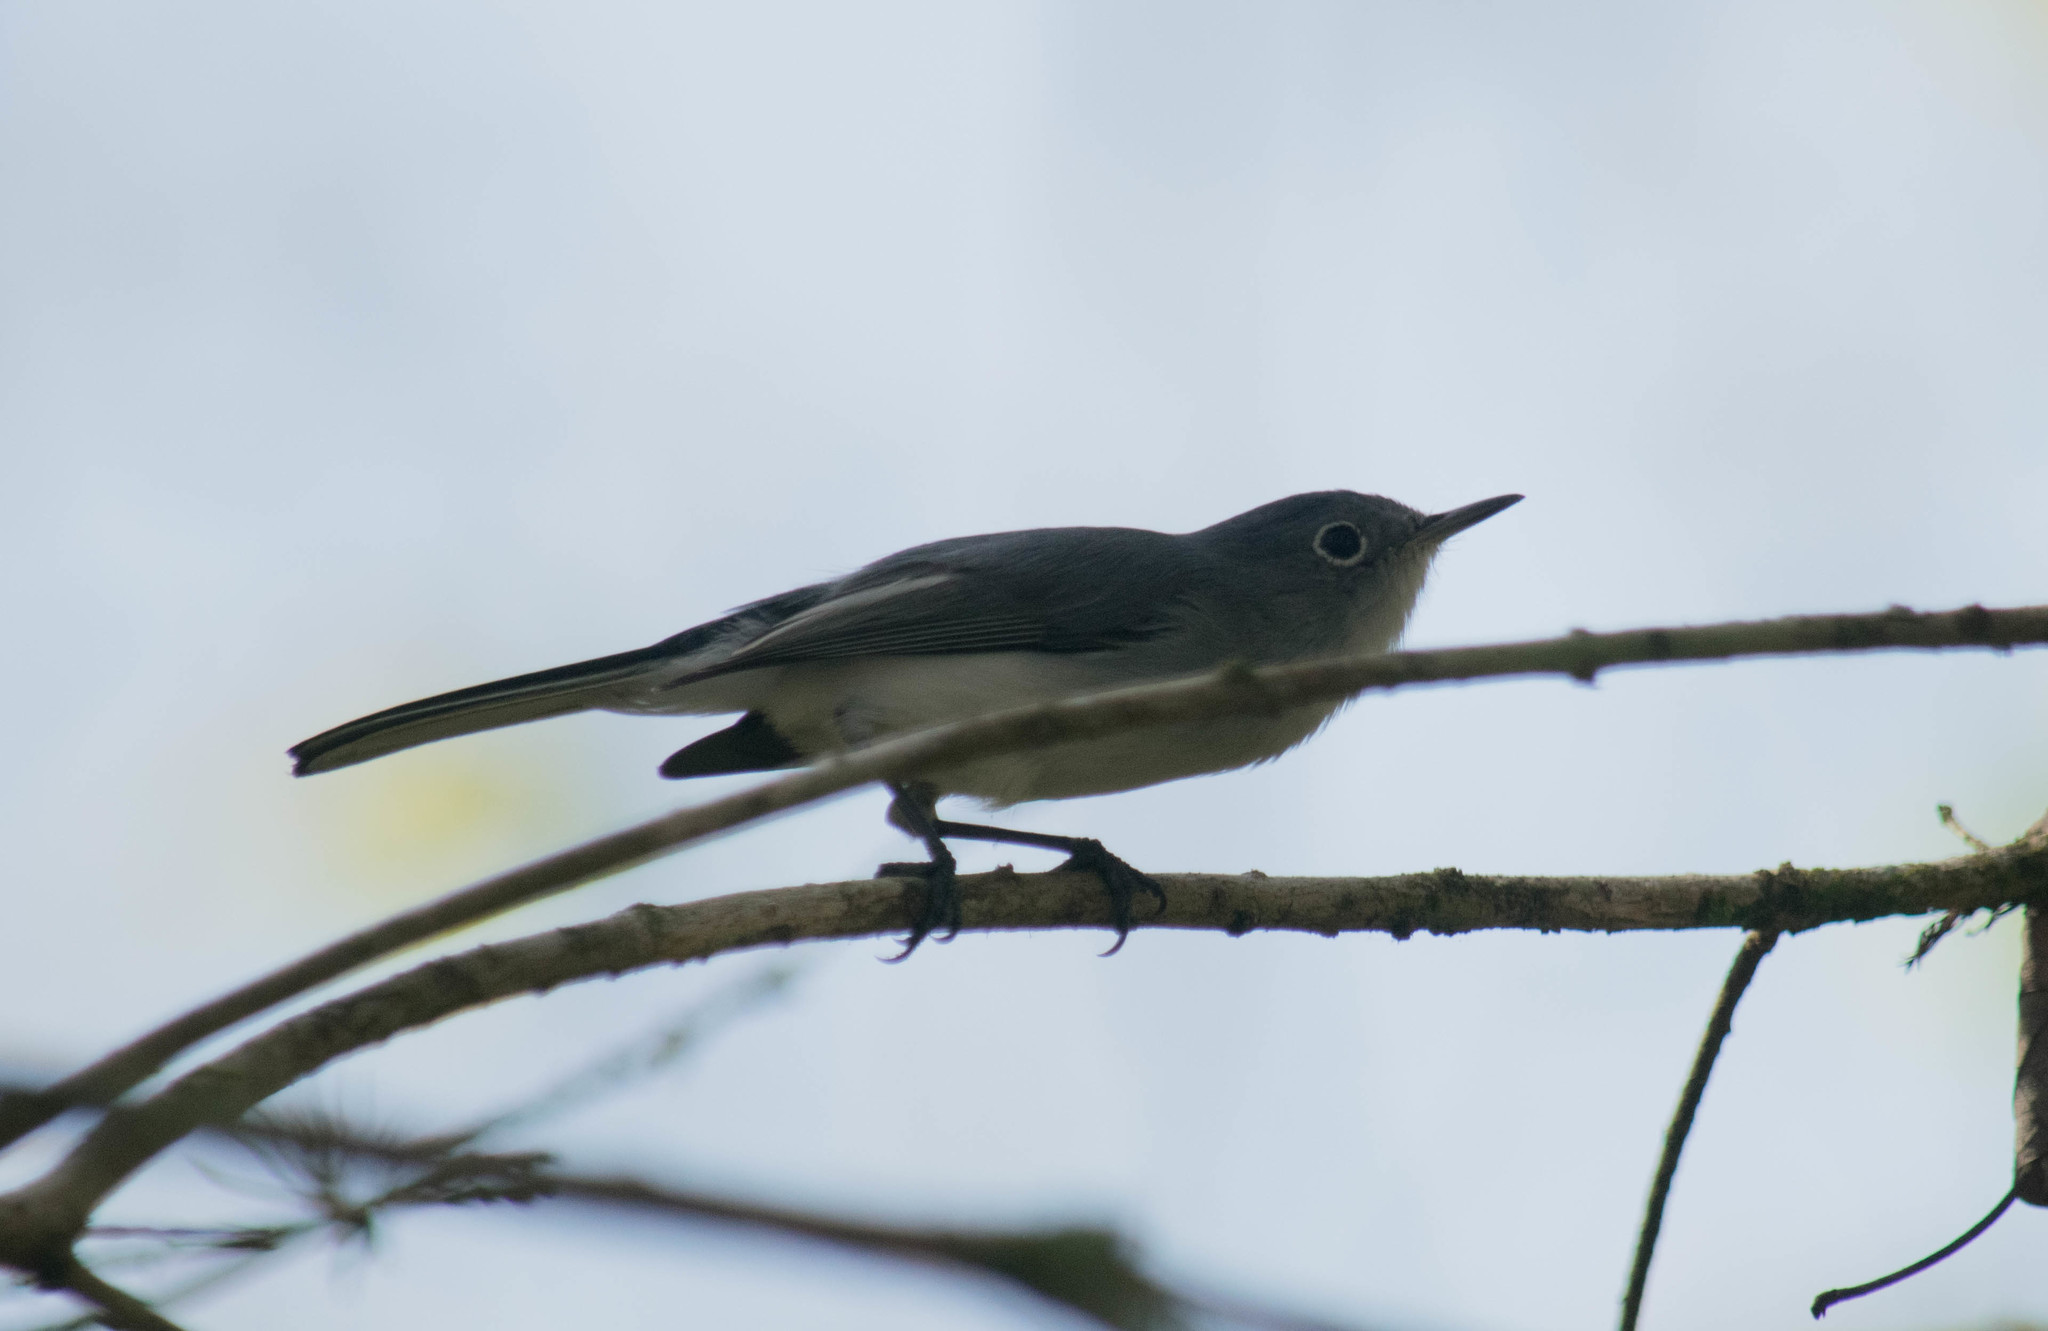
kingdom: Animalia
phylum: Chordata
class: Aves
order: Passeriformes
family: Polioptilidae
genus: Polioptila
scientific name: Polioptila caerulea
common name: Blue-gray gnatcatcher
